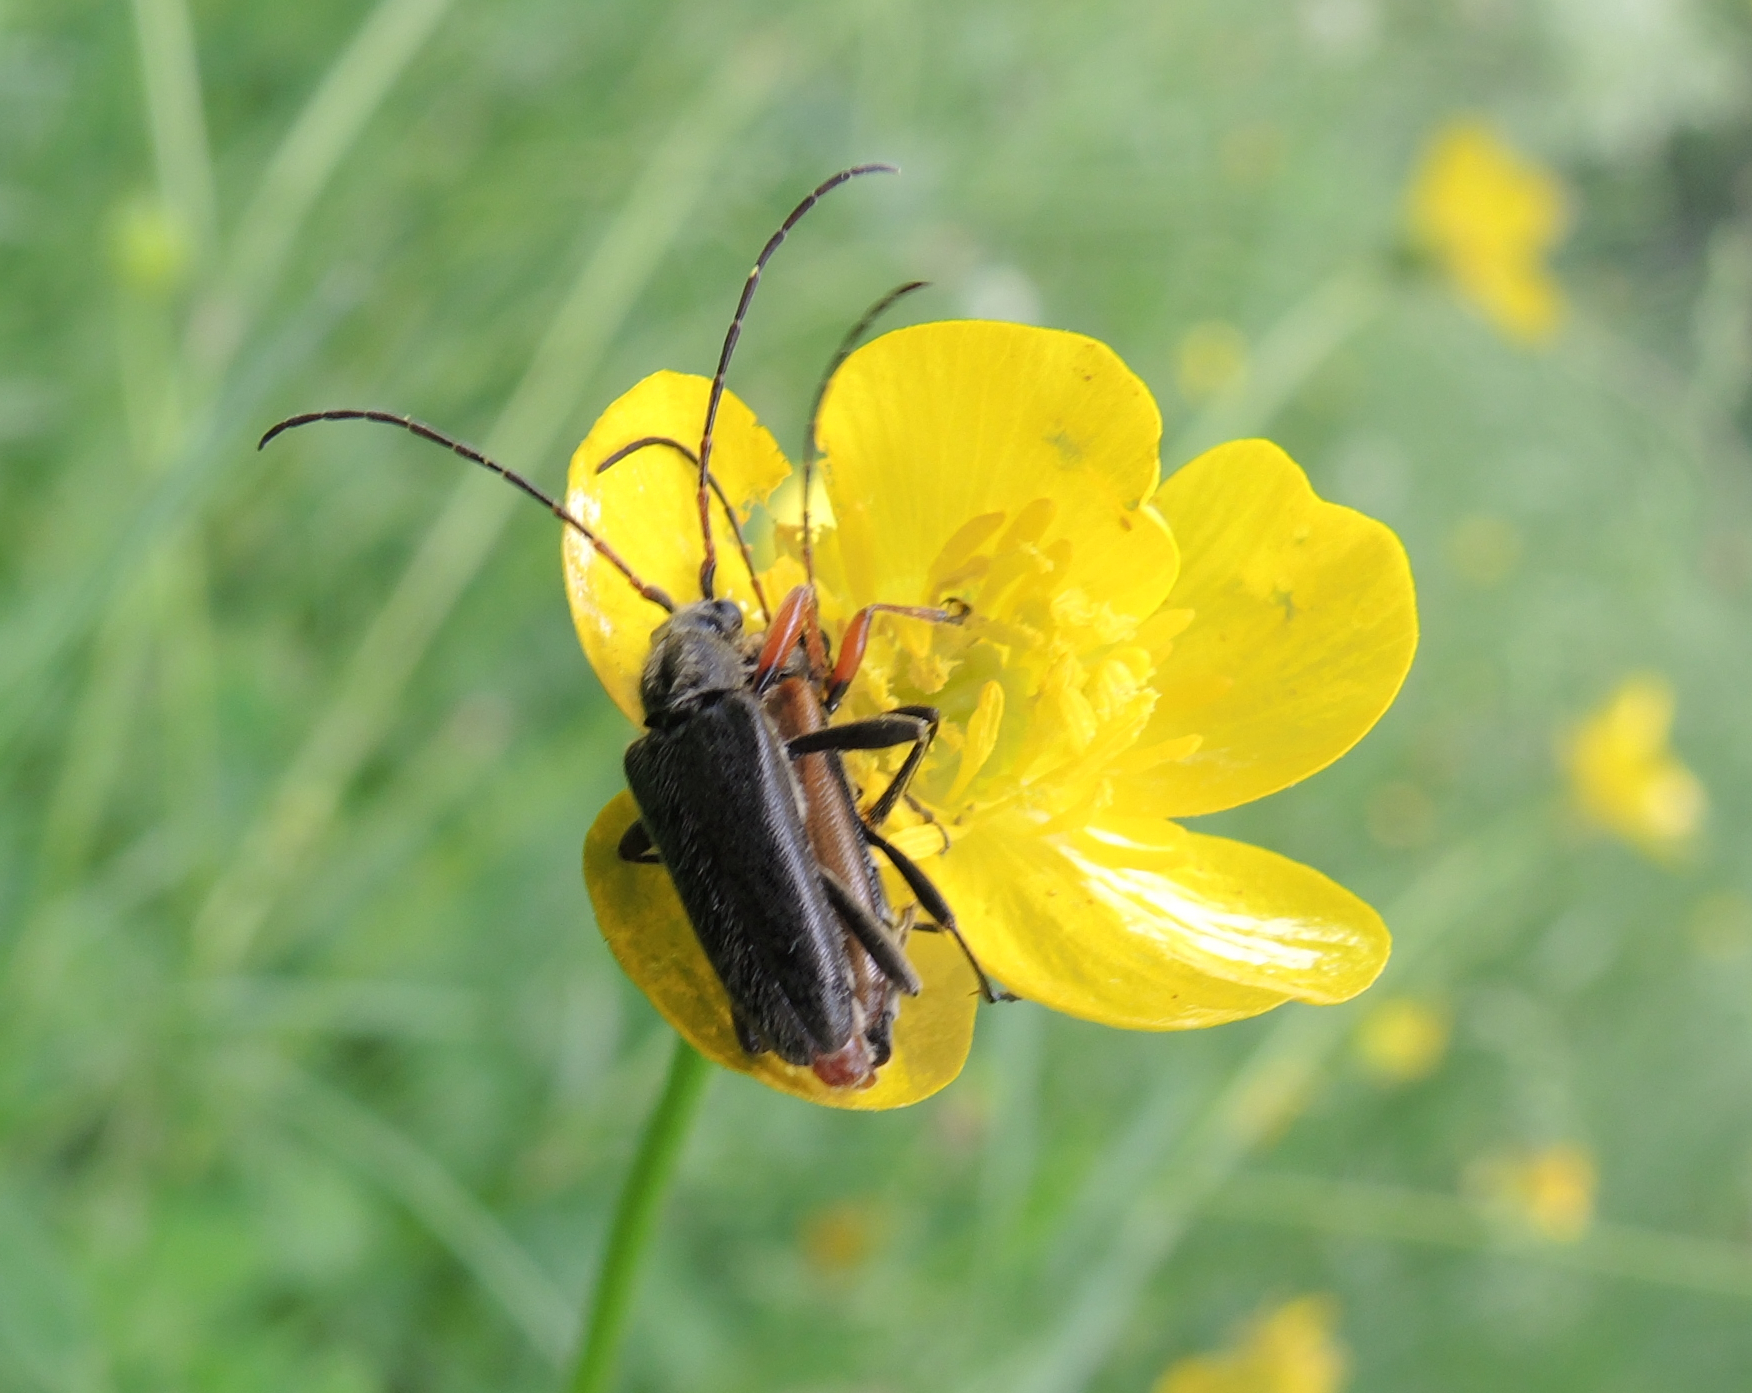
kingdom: Animalia
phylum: Arthropoda
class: Insecta
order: Coleoptera
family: Cerambycidae
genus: Cortodera
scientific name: Cortodera flavimana
